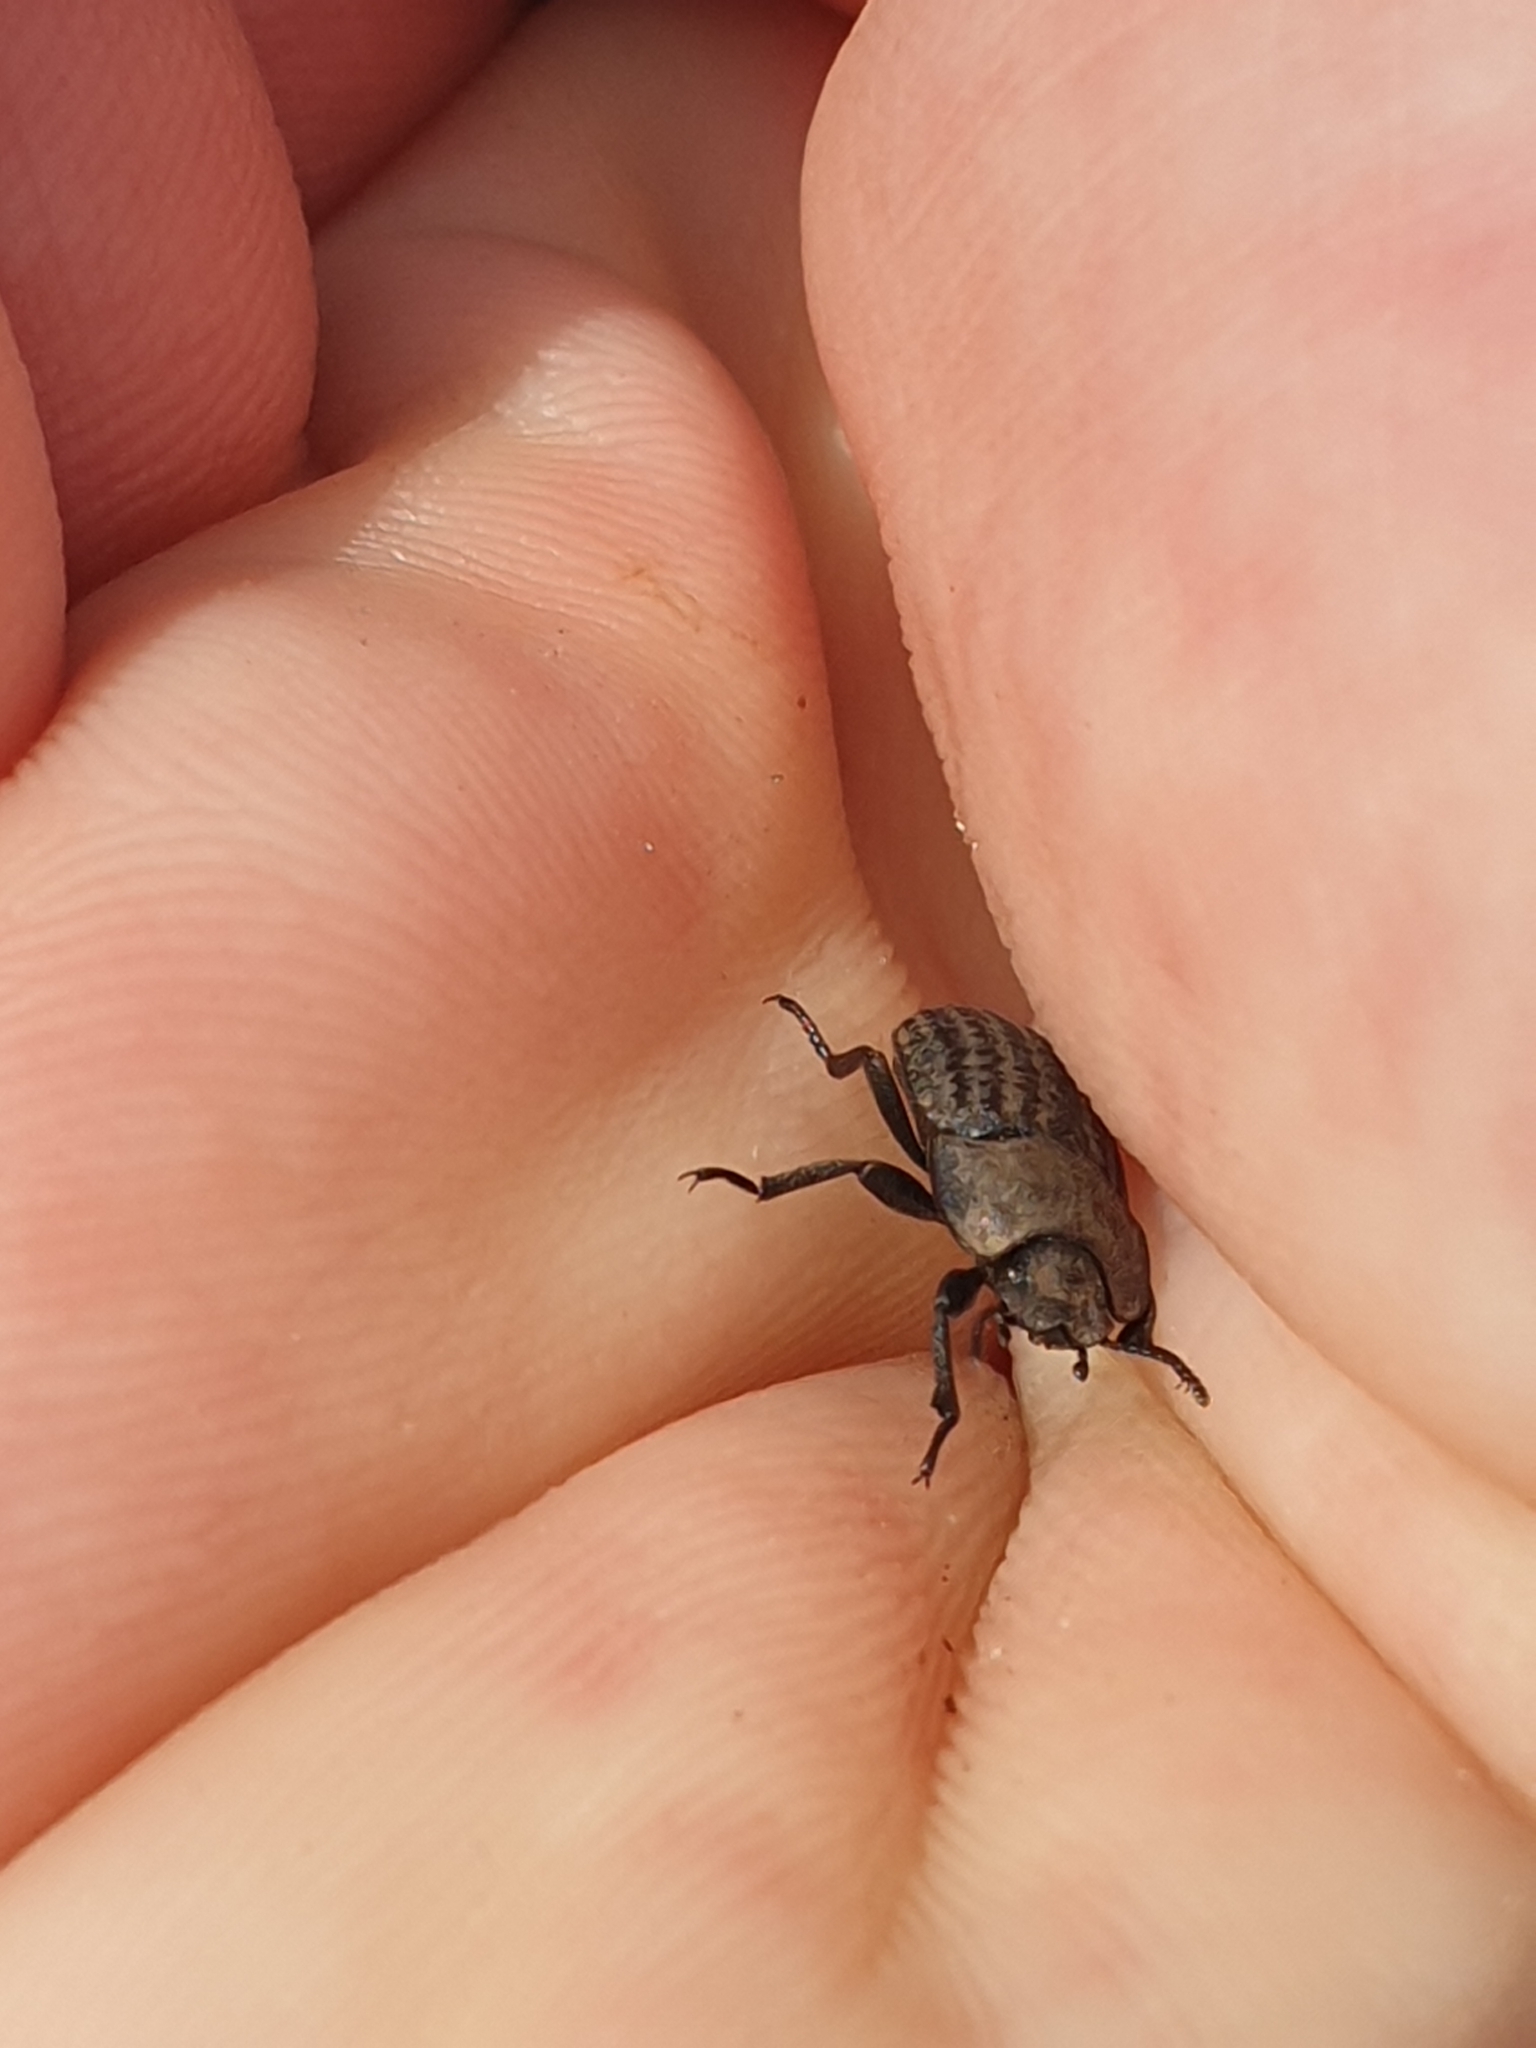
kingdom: Animalia
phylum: Arthropoda
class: Insecta
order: Coleoptera
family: Tenebrionidae
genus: Opatrum
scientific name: Opatrum sabulosum
